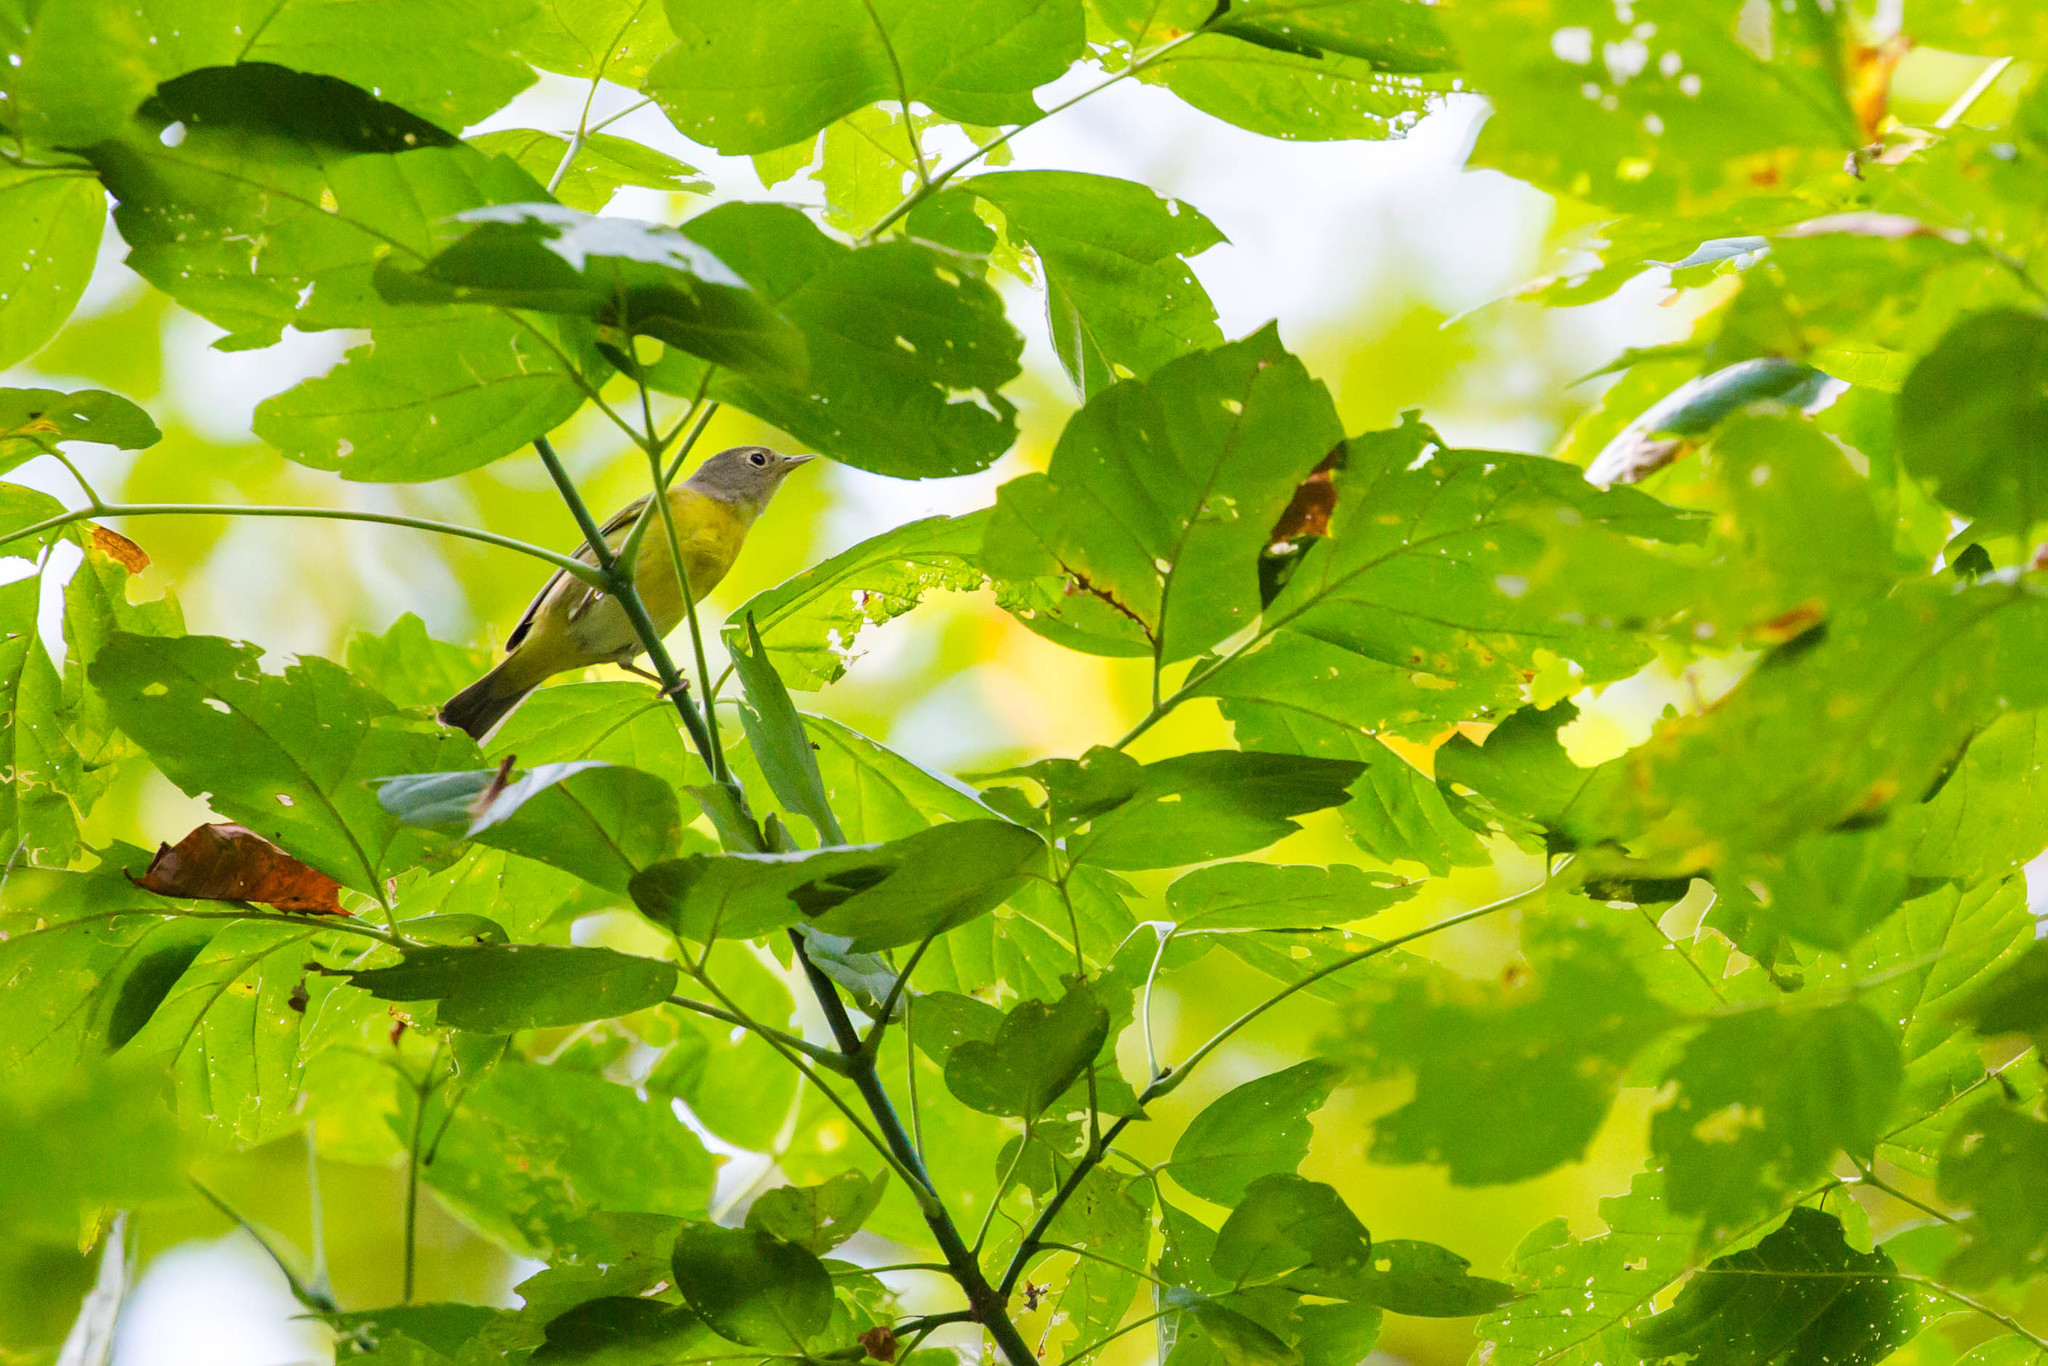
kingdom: Animalia
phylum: Chordata
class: Aves
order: Passeriformes
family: Parulidae
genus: Leiothlypis
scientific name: Leiothlypis ruficapilla
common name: Nashville warbler
